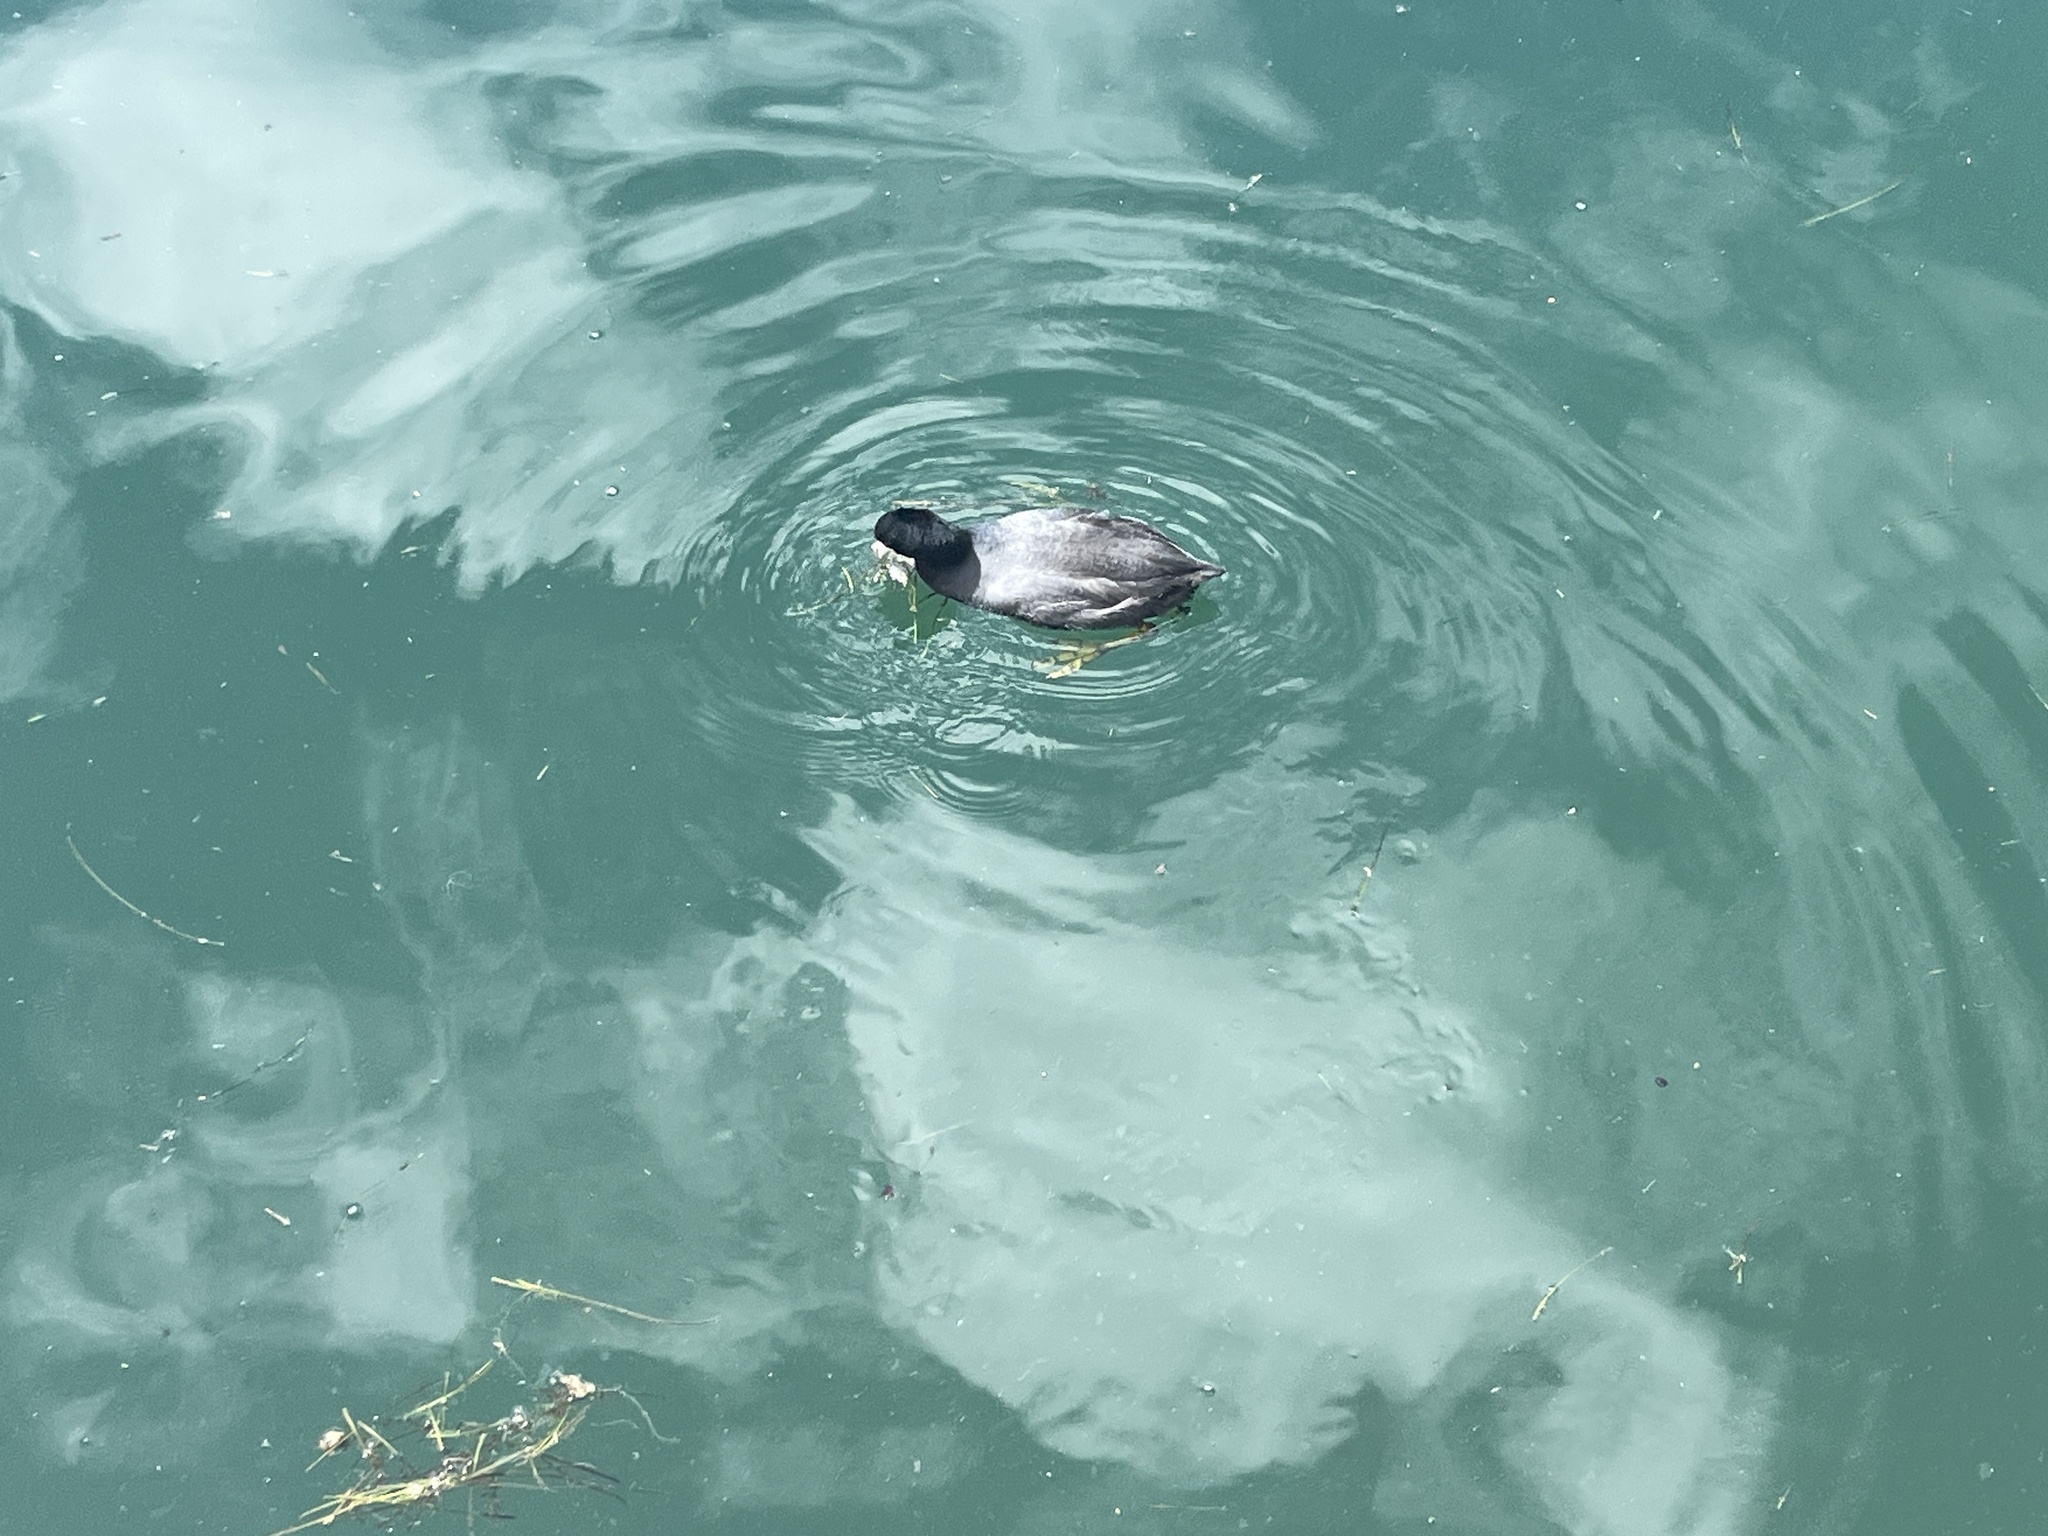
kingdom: Animalia
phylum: Chordata
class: Aves
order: Gruiformes
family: Rallidae
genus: Fulica
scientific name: Fulica americana
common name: American coot
